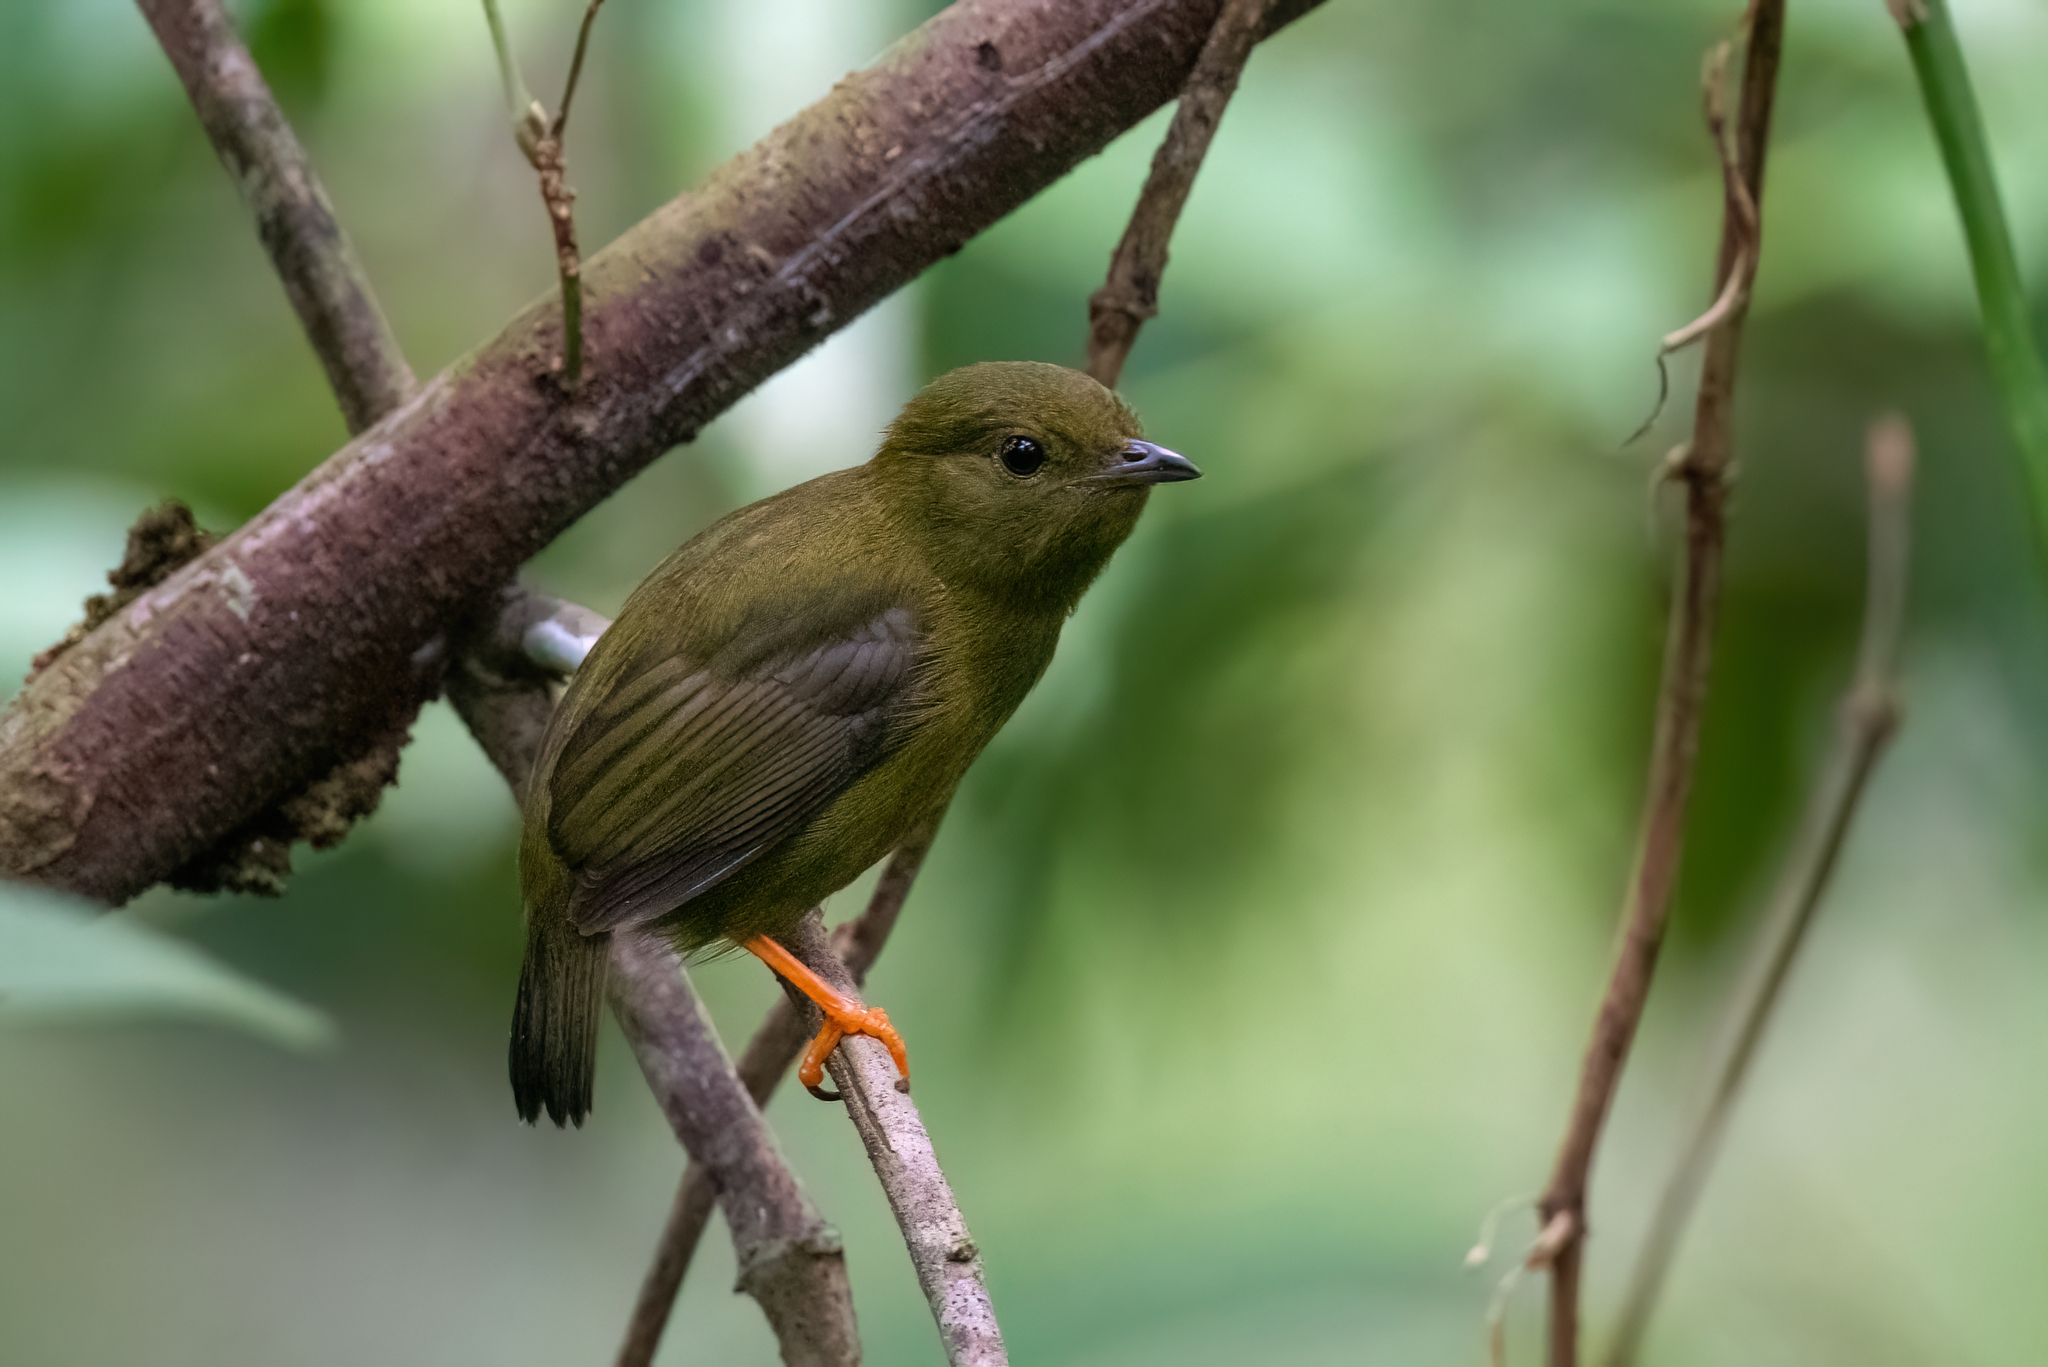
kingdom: Animalia
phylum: Chordata
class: Aves
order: Passeriformes
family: Pipridae
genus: Manacus
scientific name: Manacus vitellinus
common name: Golden-collared manakin
